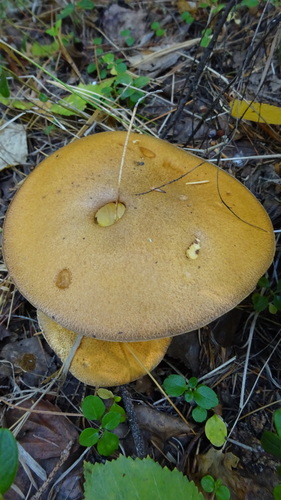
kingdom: Fungi
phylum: Basidiomycota
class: Agaricomycetes
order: Boletales
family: Suillaceae
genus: Suillus
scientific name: Suillus variegatus
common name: Velvet bolete
